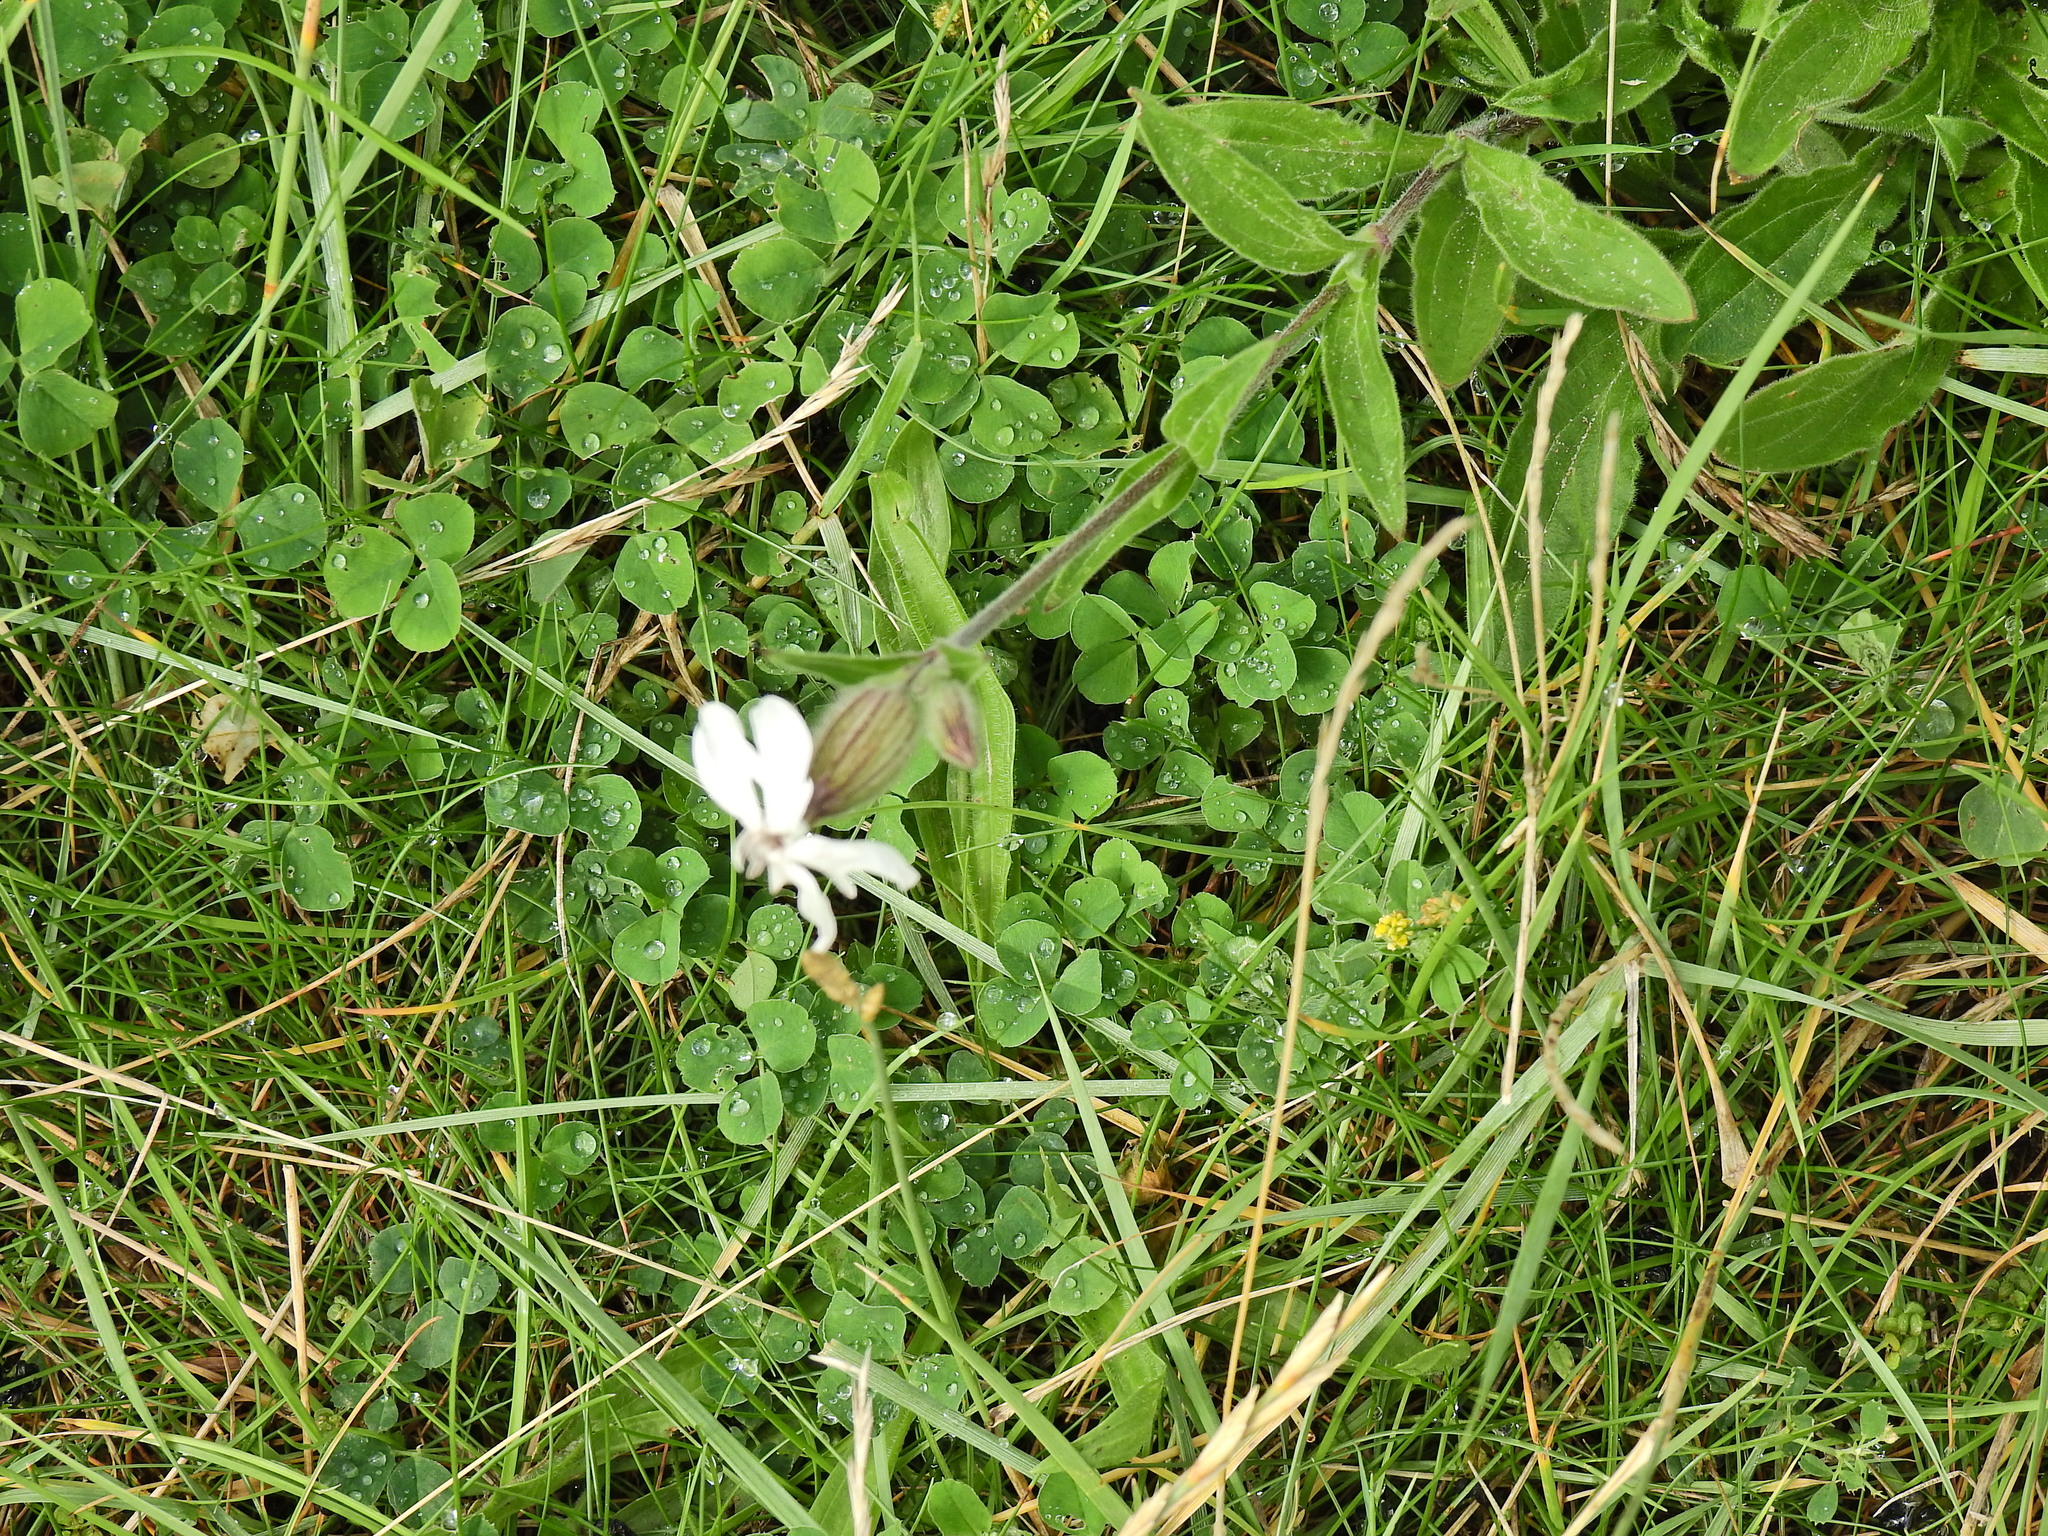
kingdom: Plantae
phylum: Tracheophyta
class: Magnoliopsida
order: Caryophyllales
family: Caryophyllaceae
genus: Silene
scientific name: Silene latifolia
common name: White campion
